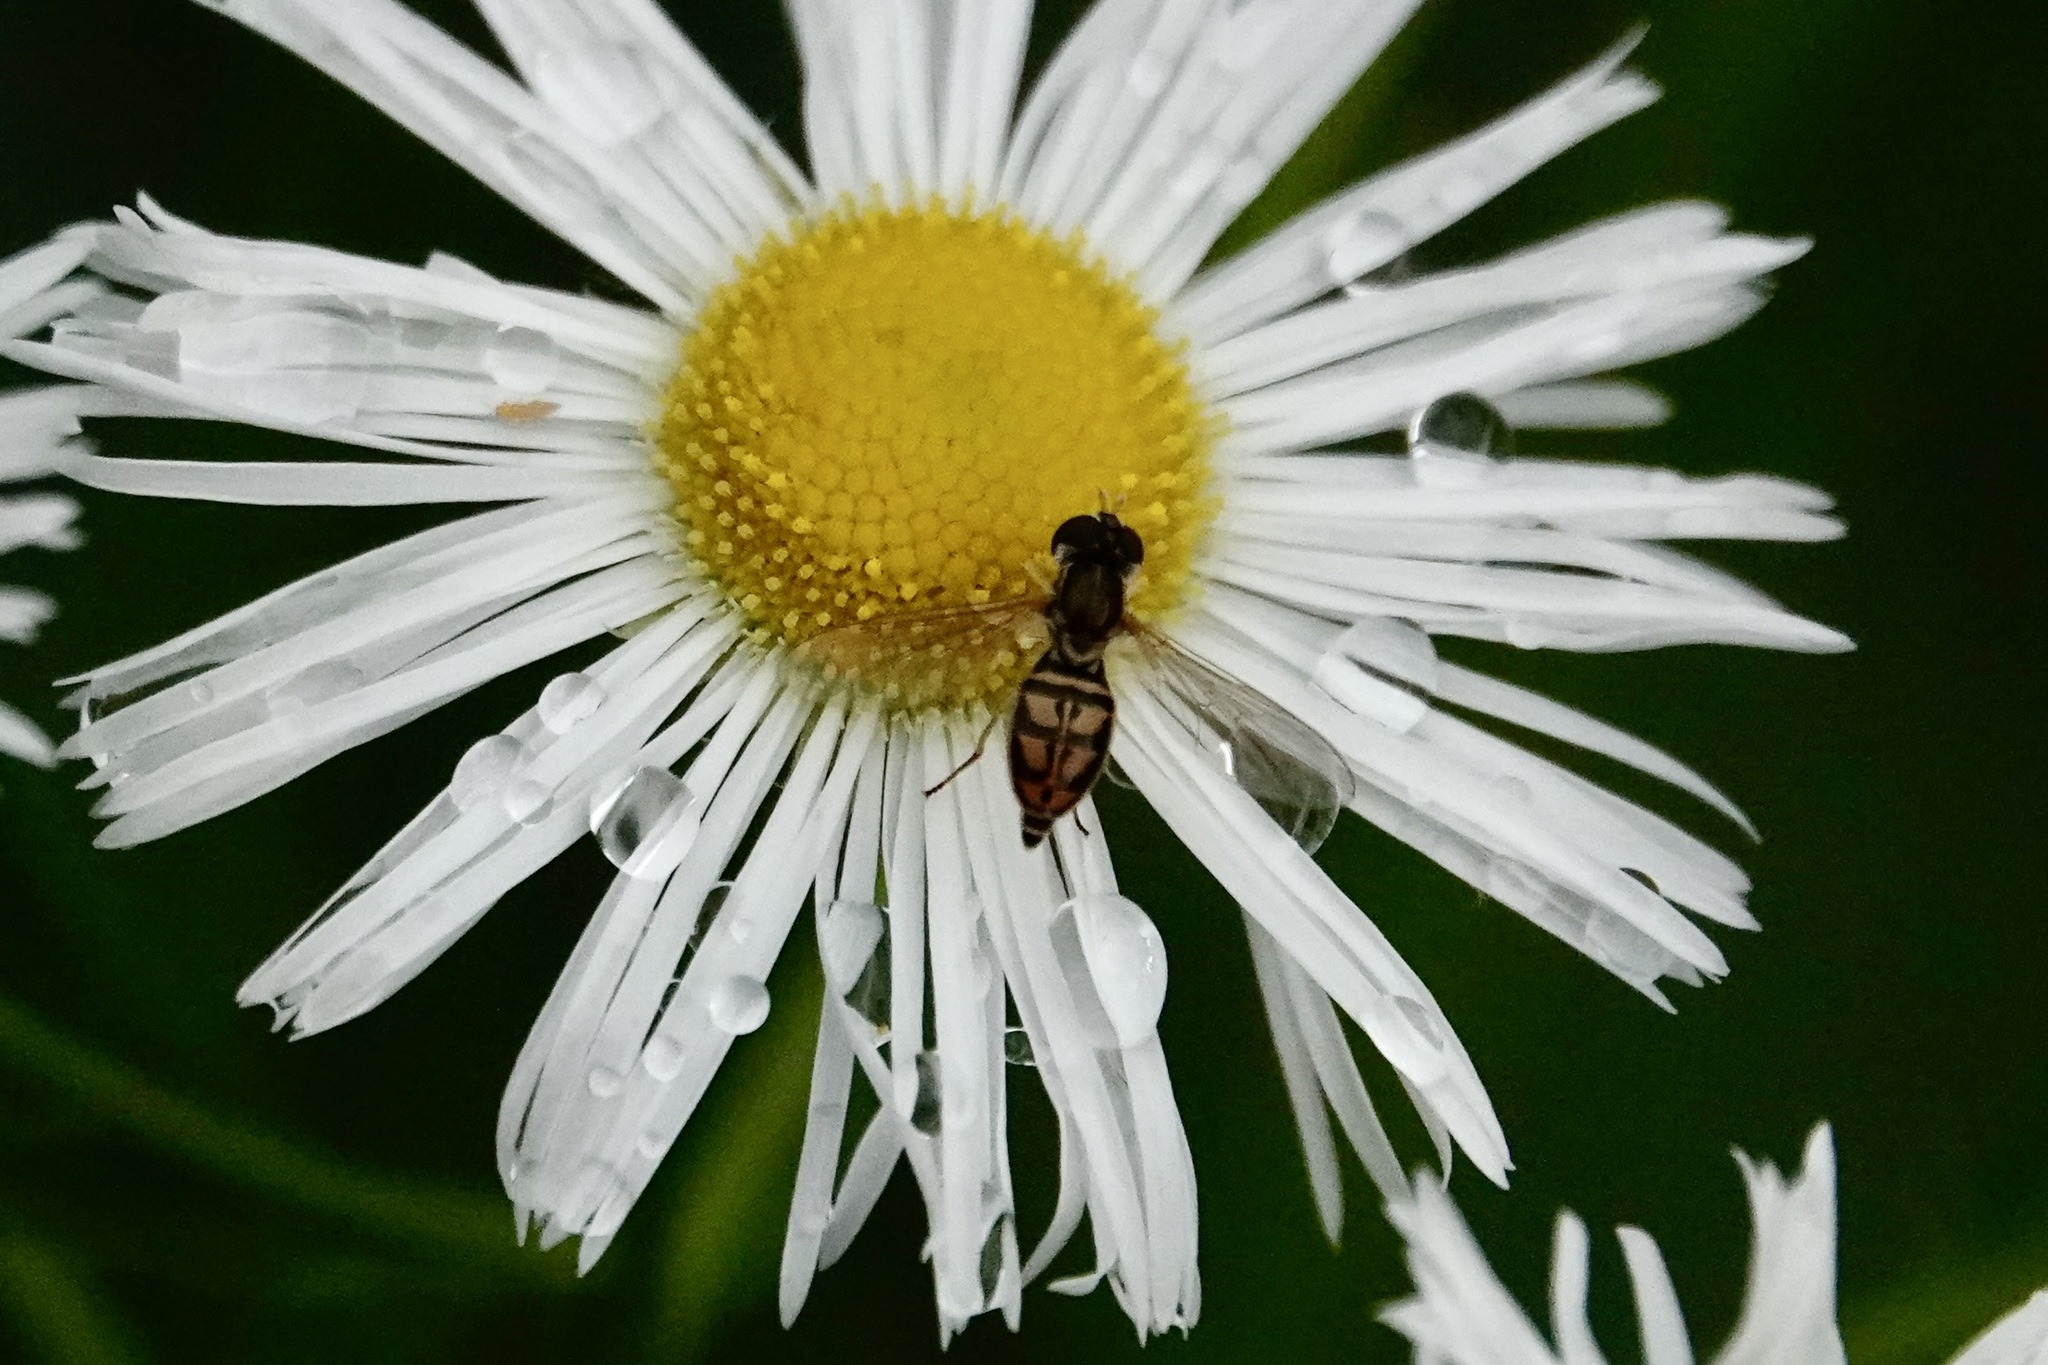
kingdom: Animalia
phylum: Arthropoda
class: Insecta
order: Diptera
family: Syrphidae
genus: Toxomerus
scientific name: Toxomerus marginatus
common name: Syrphid fly
